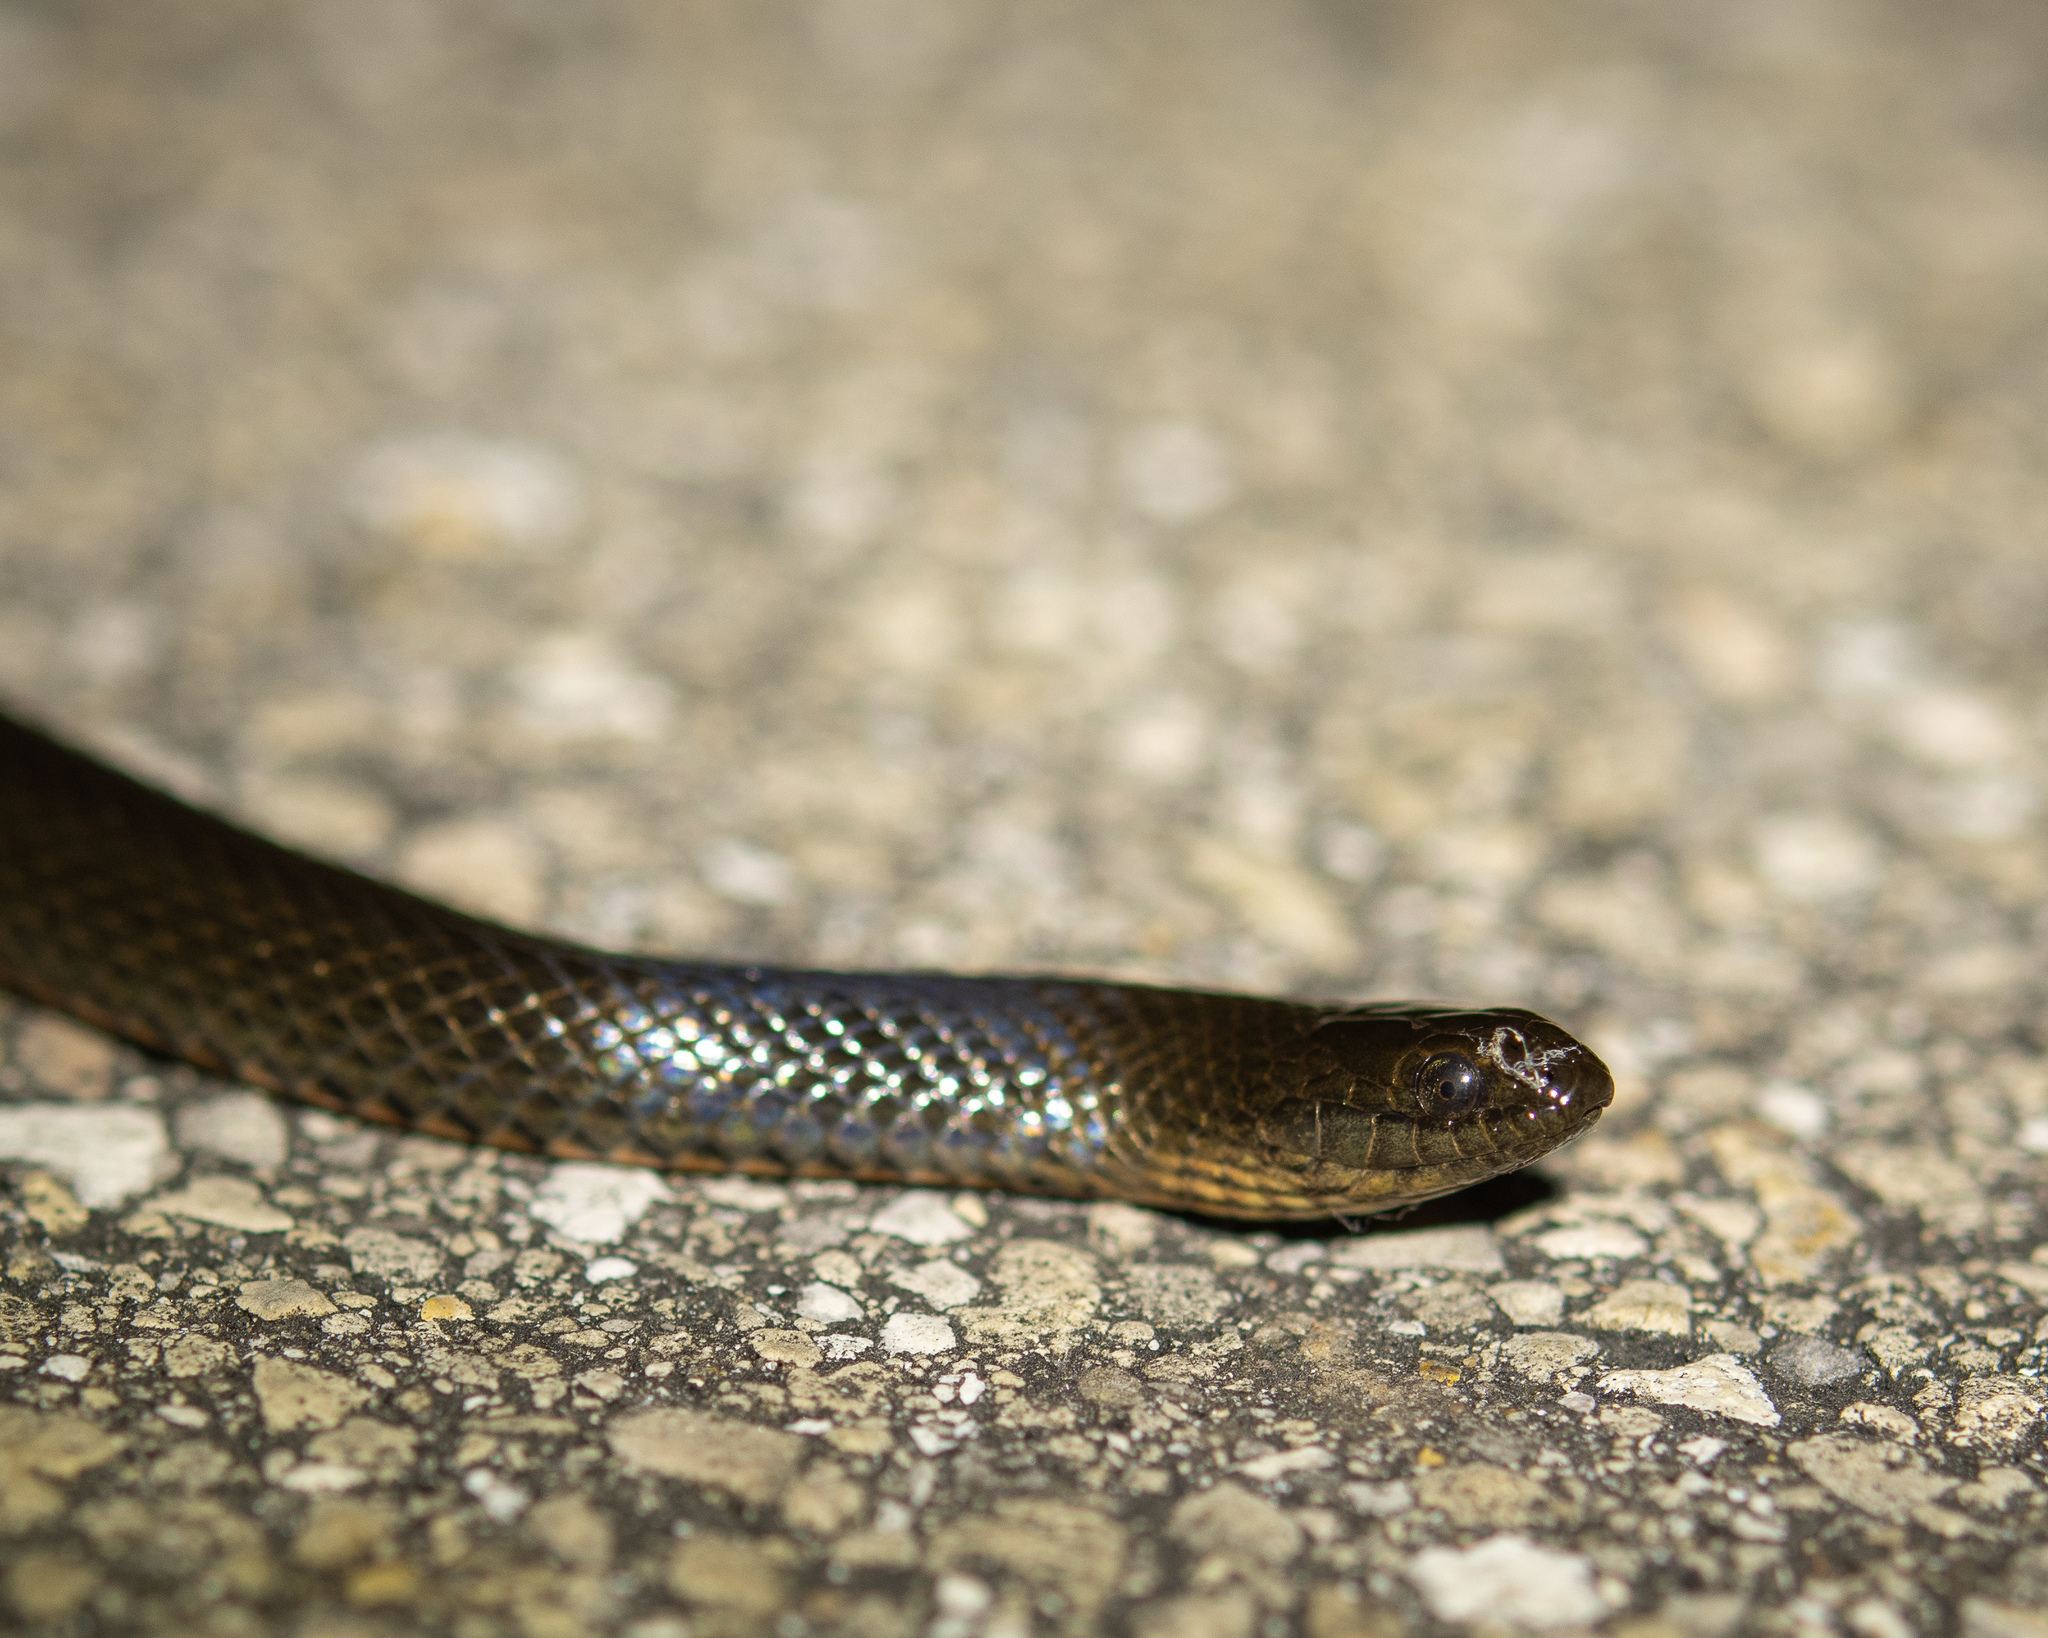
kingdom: Animalia
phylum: Chordata
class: Squamata
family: Colubridae
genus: Liodytes
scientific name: Liodytes pygaea
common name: Black swamp snake
